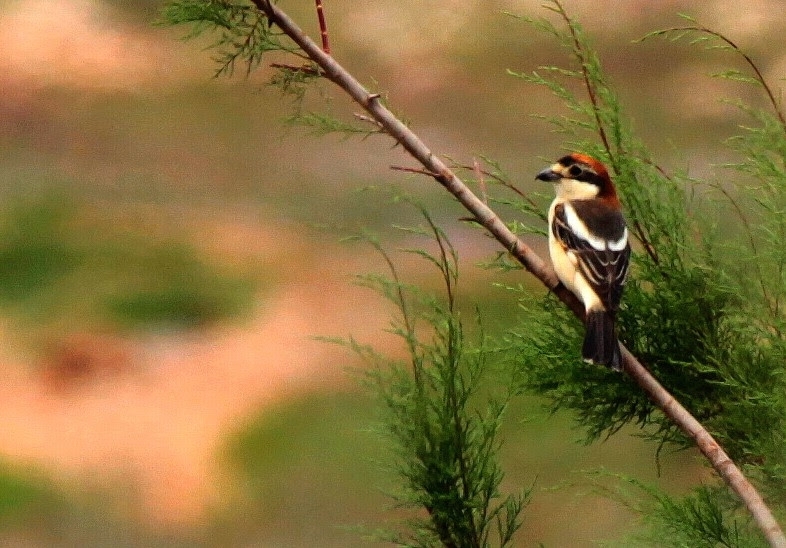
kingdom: Animalia
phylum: Chordata
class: Aves
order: Passeriformes
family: Laniidae
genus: Lanius
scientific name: Lanius senator
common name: Woodchat shrike
